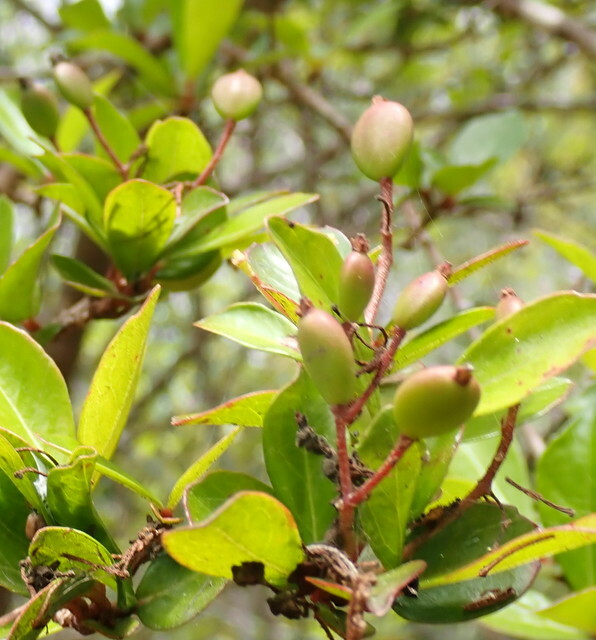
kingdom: Plantae
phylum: Tracheophyta
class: Magnoliopsida
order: Dipsacales
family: Viburnaceae
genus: Viburnum
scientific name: Viburnum obovatum
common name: Walter's viburnum
